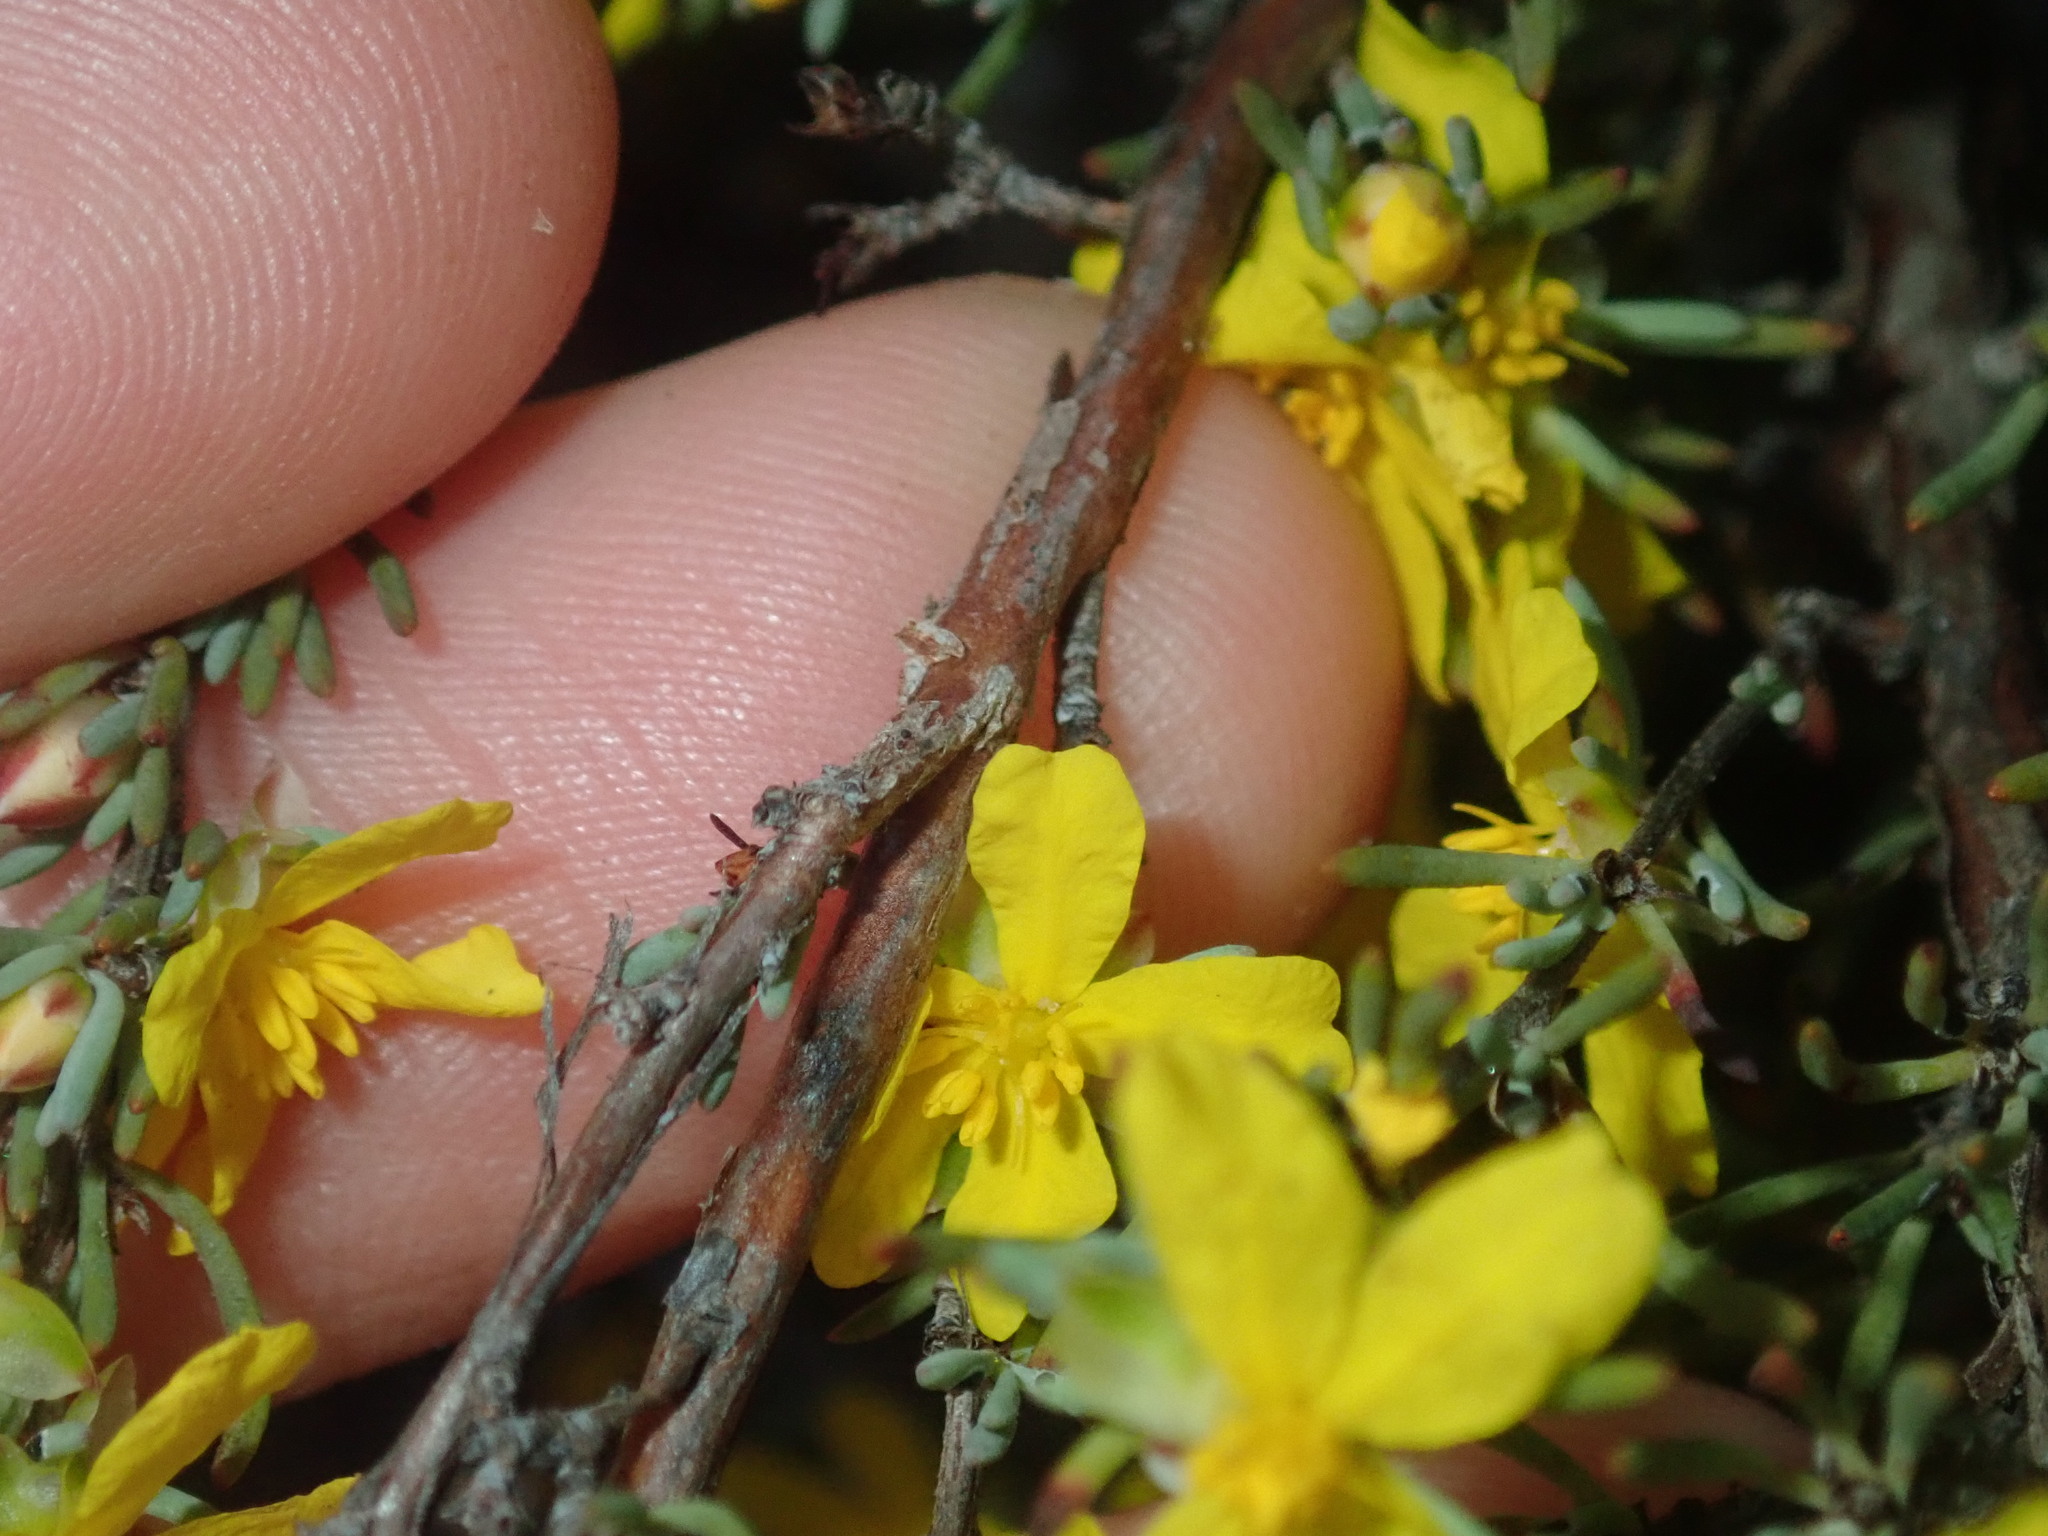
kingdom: Plantae
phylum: Tracheophyta
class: Magnoliopsida
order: Dilleniales
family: Dilleniaceae
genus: Hibbertia
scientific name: Hibbertia hemignosta
